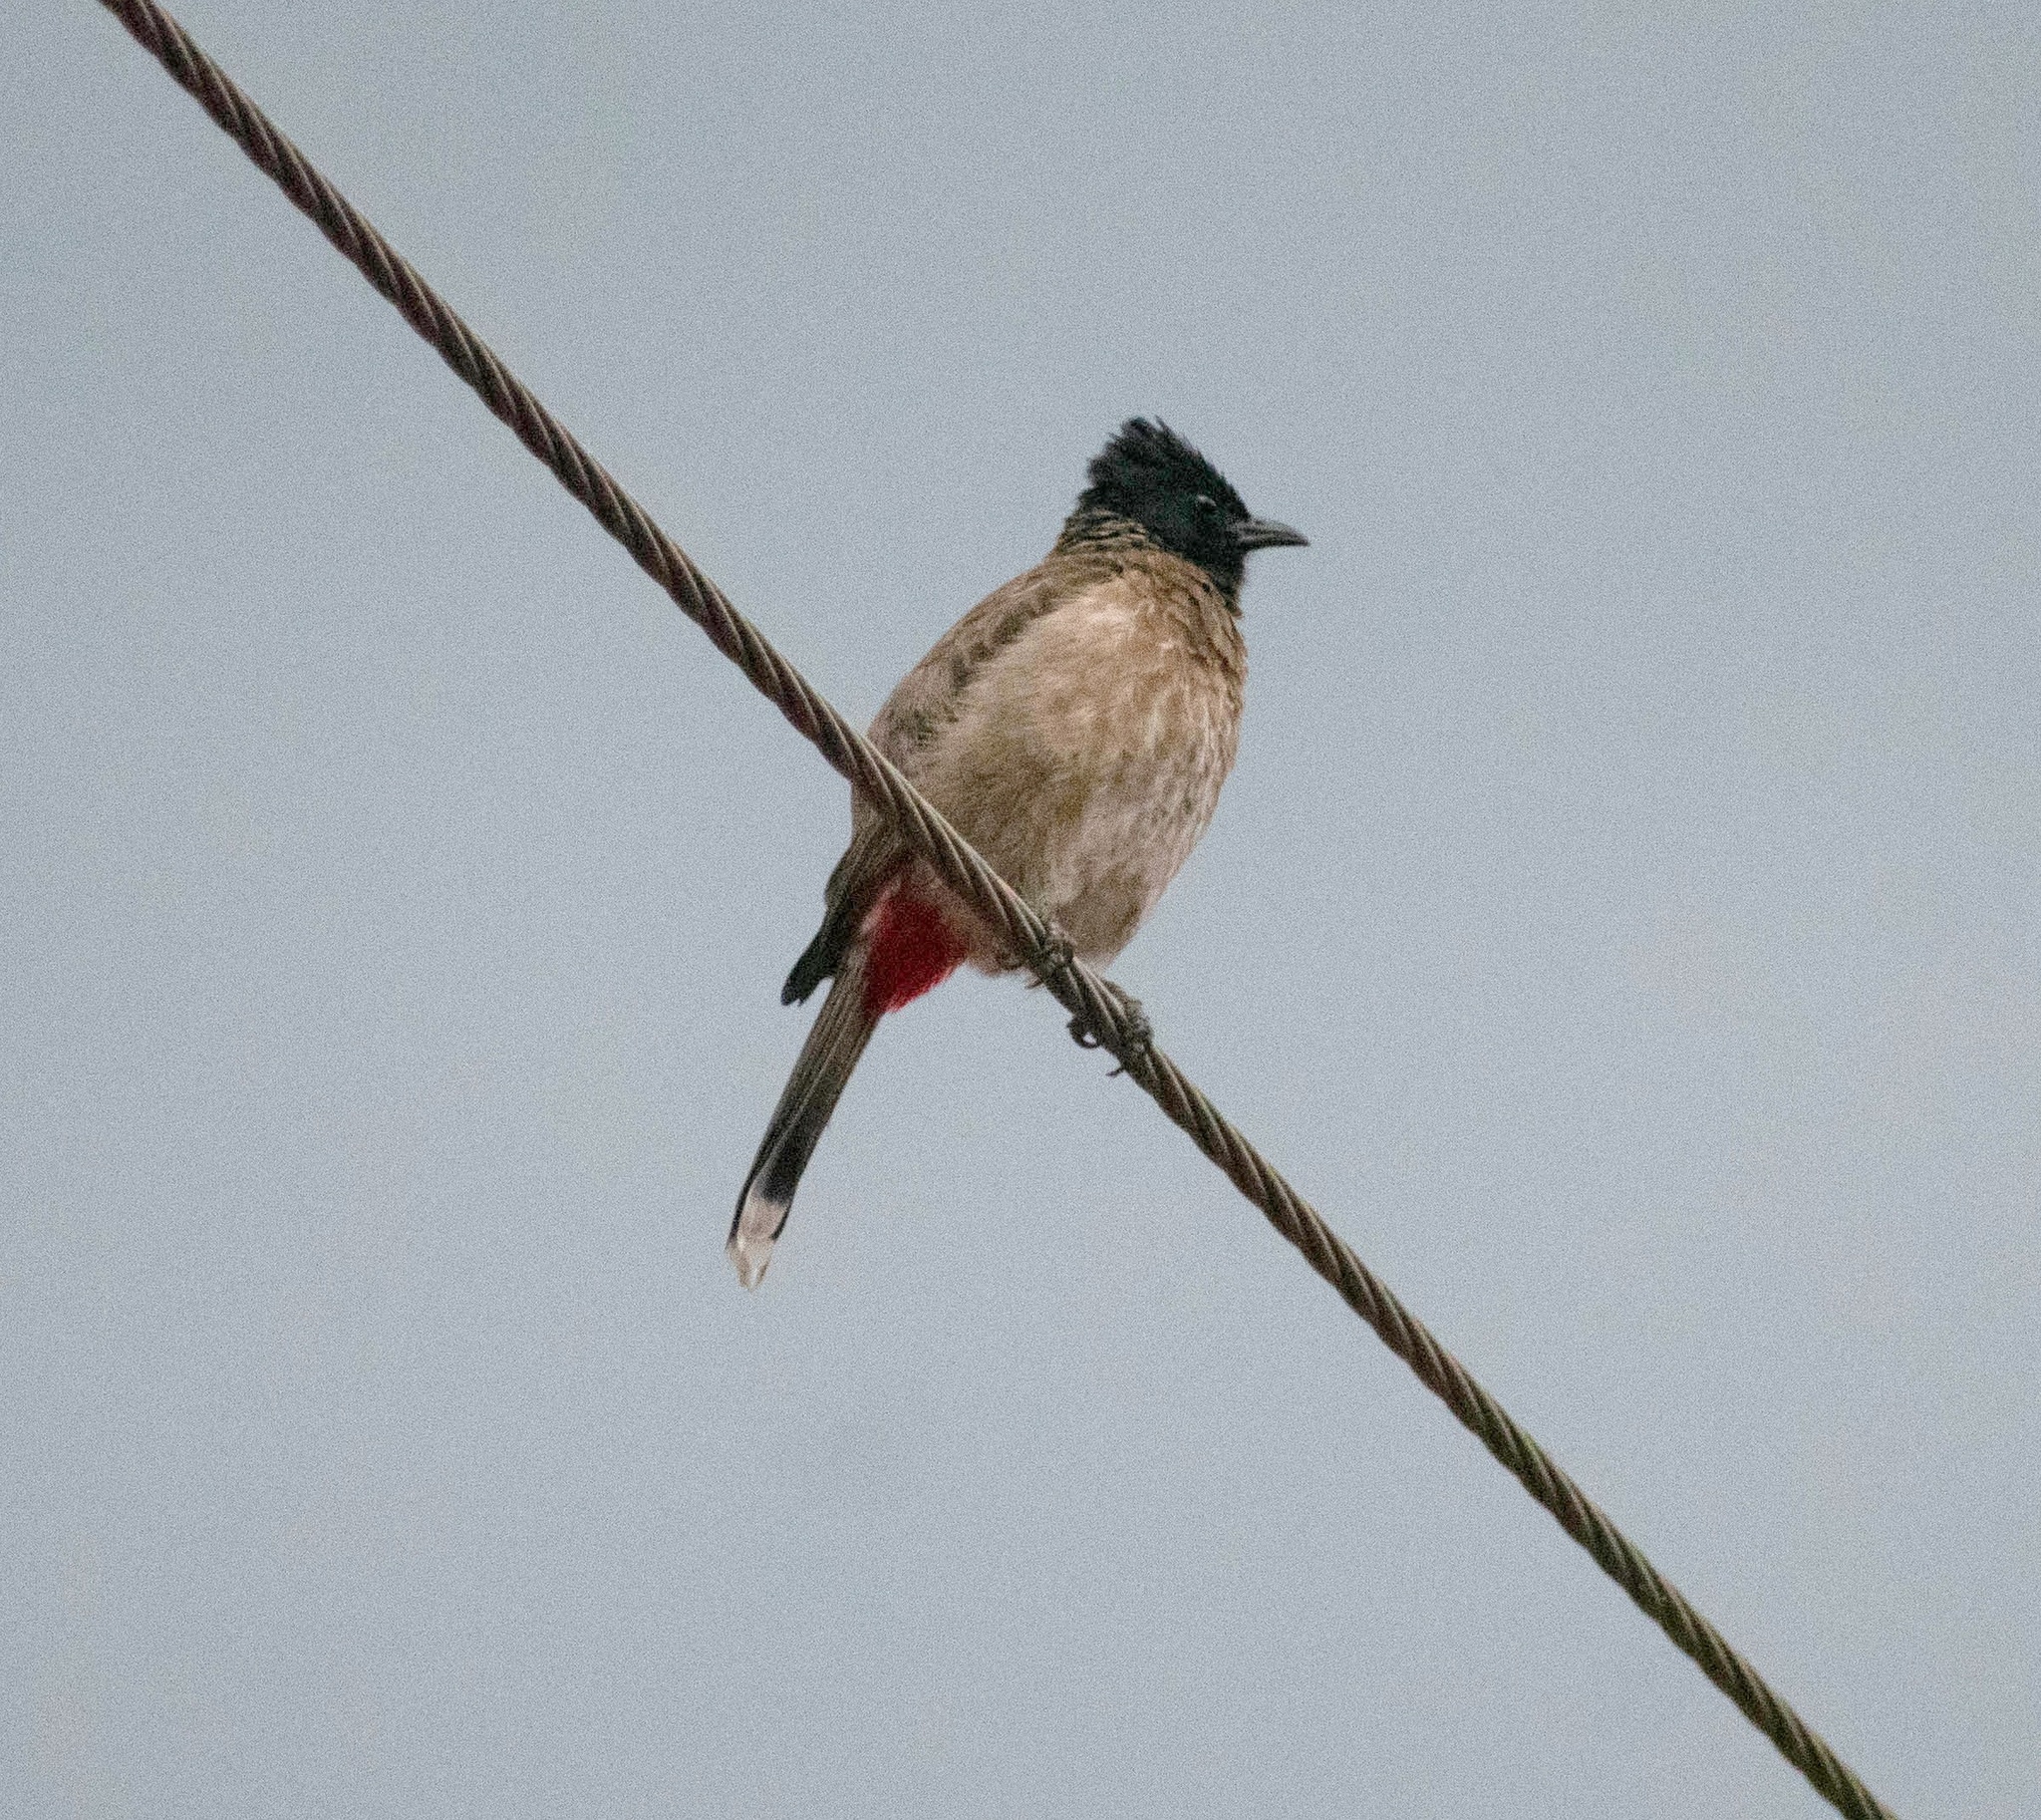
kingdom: Animalia
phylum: Chordata
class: Aves
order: Passeriformes
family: Pycnonotidae
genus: Pycnonotus
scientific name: Pycnonotus cafer
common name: Red-vented bulbul
